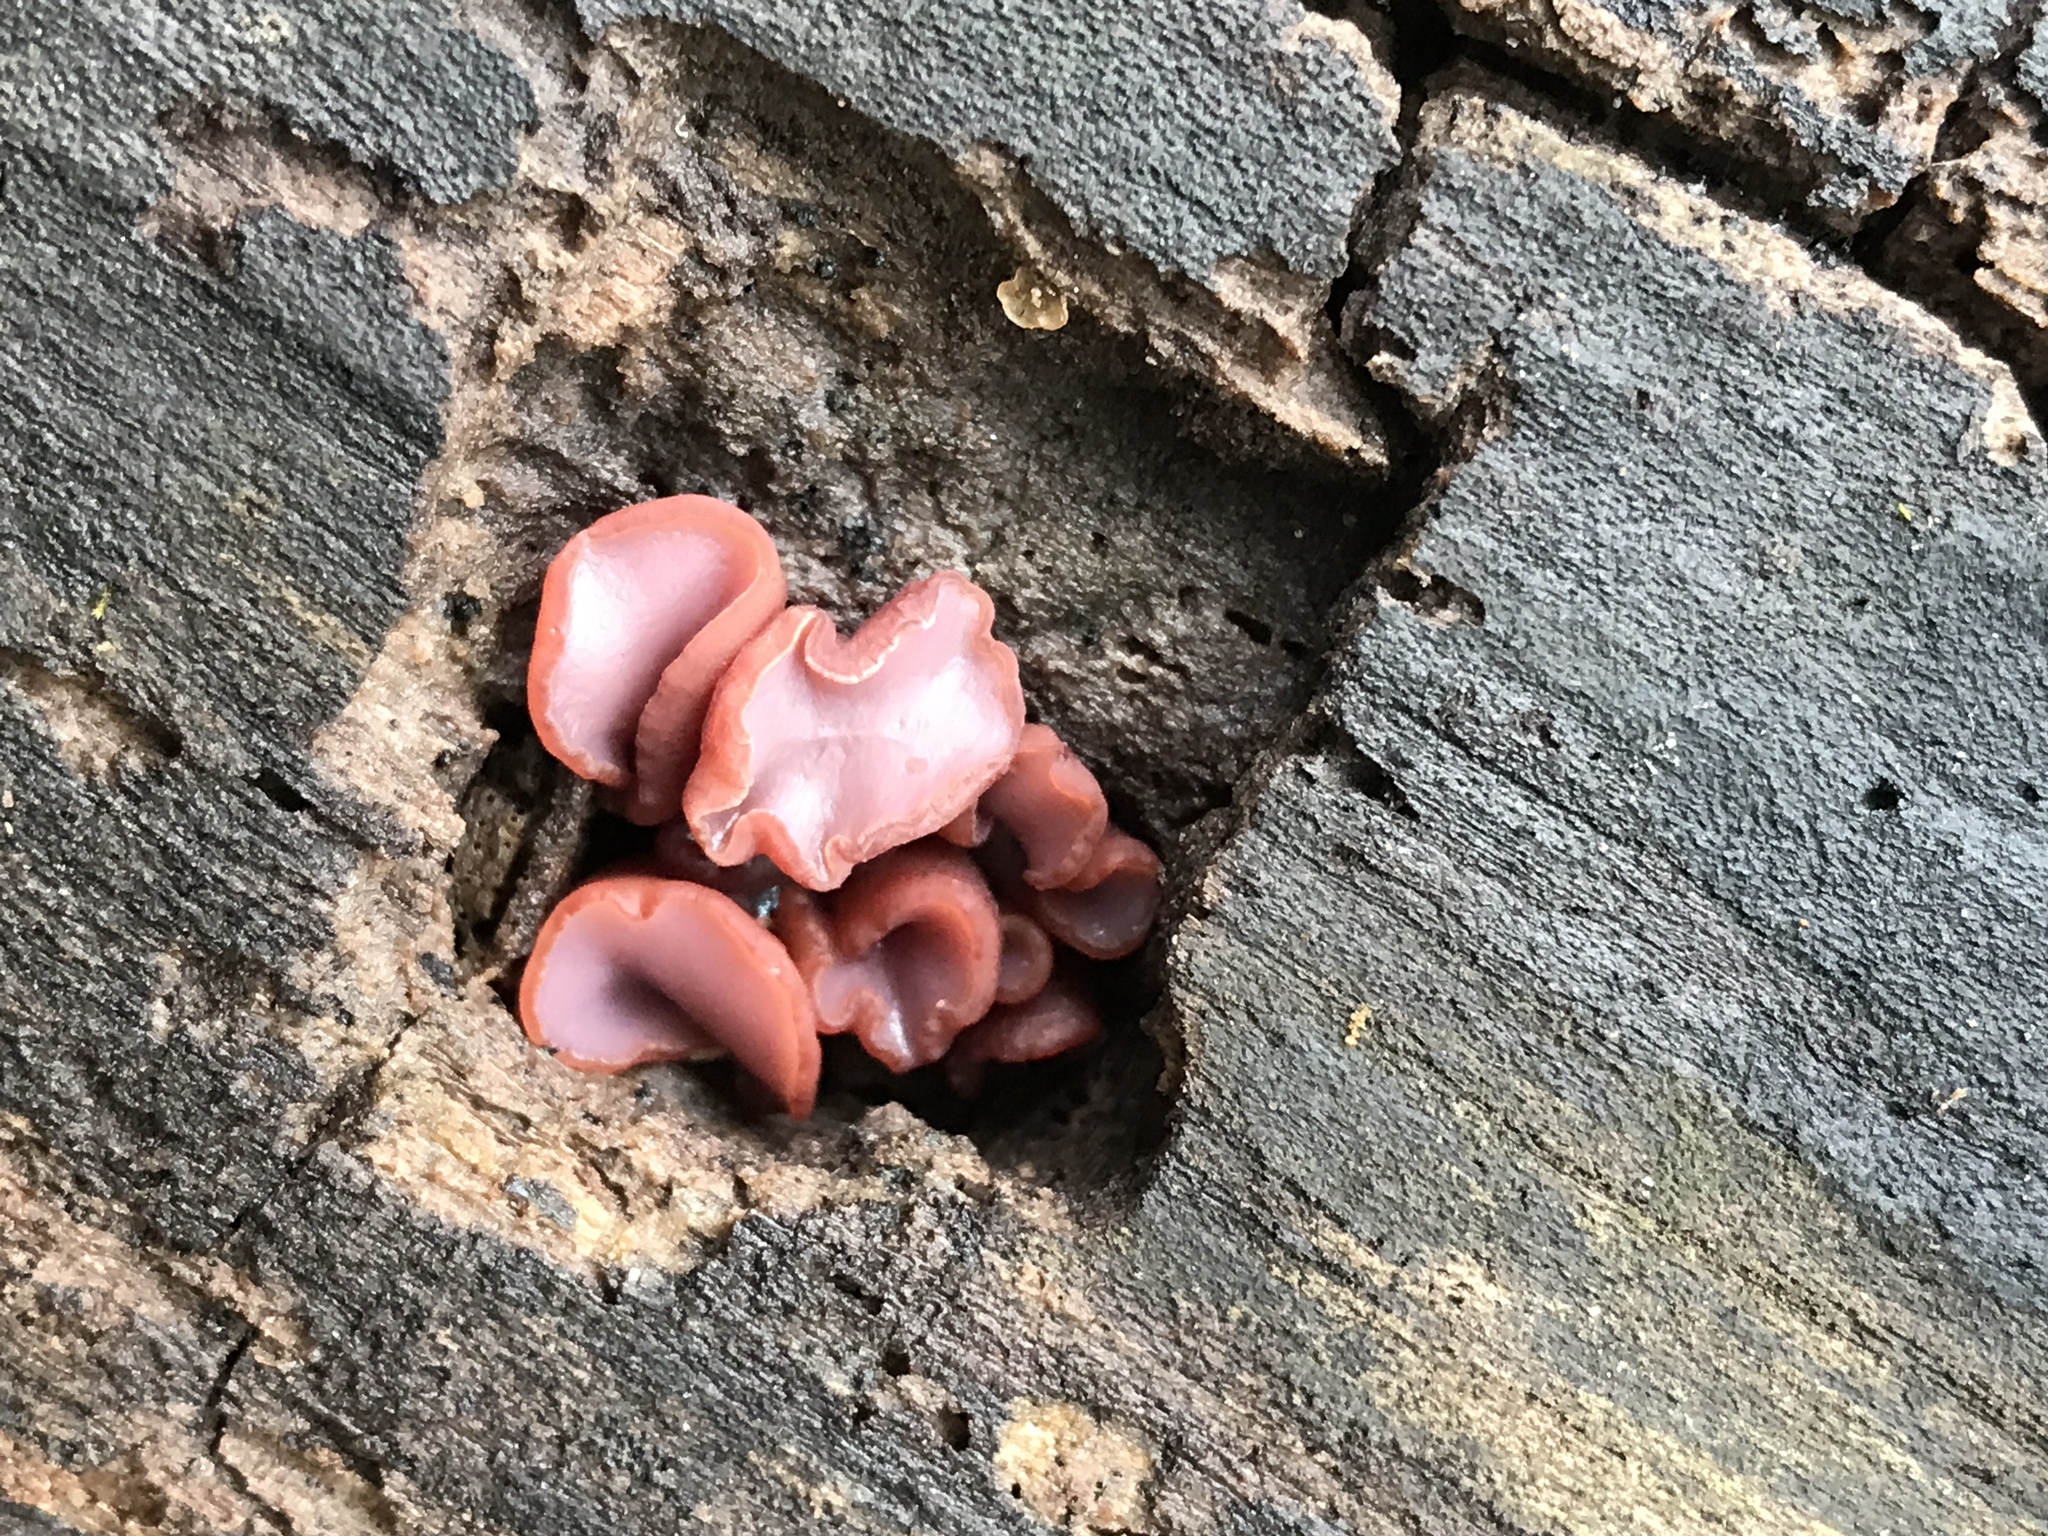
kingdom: Fungi
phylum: Ascomycota
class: Leotiomycetes
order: Helotiales
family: Gelatinodiscaceae
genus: Ascocoryne
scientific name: Ascocoryne sarcoides
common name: Purple jellydisc
